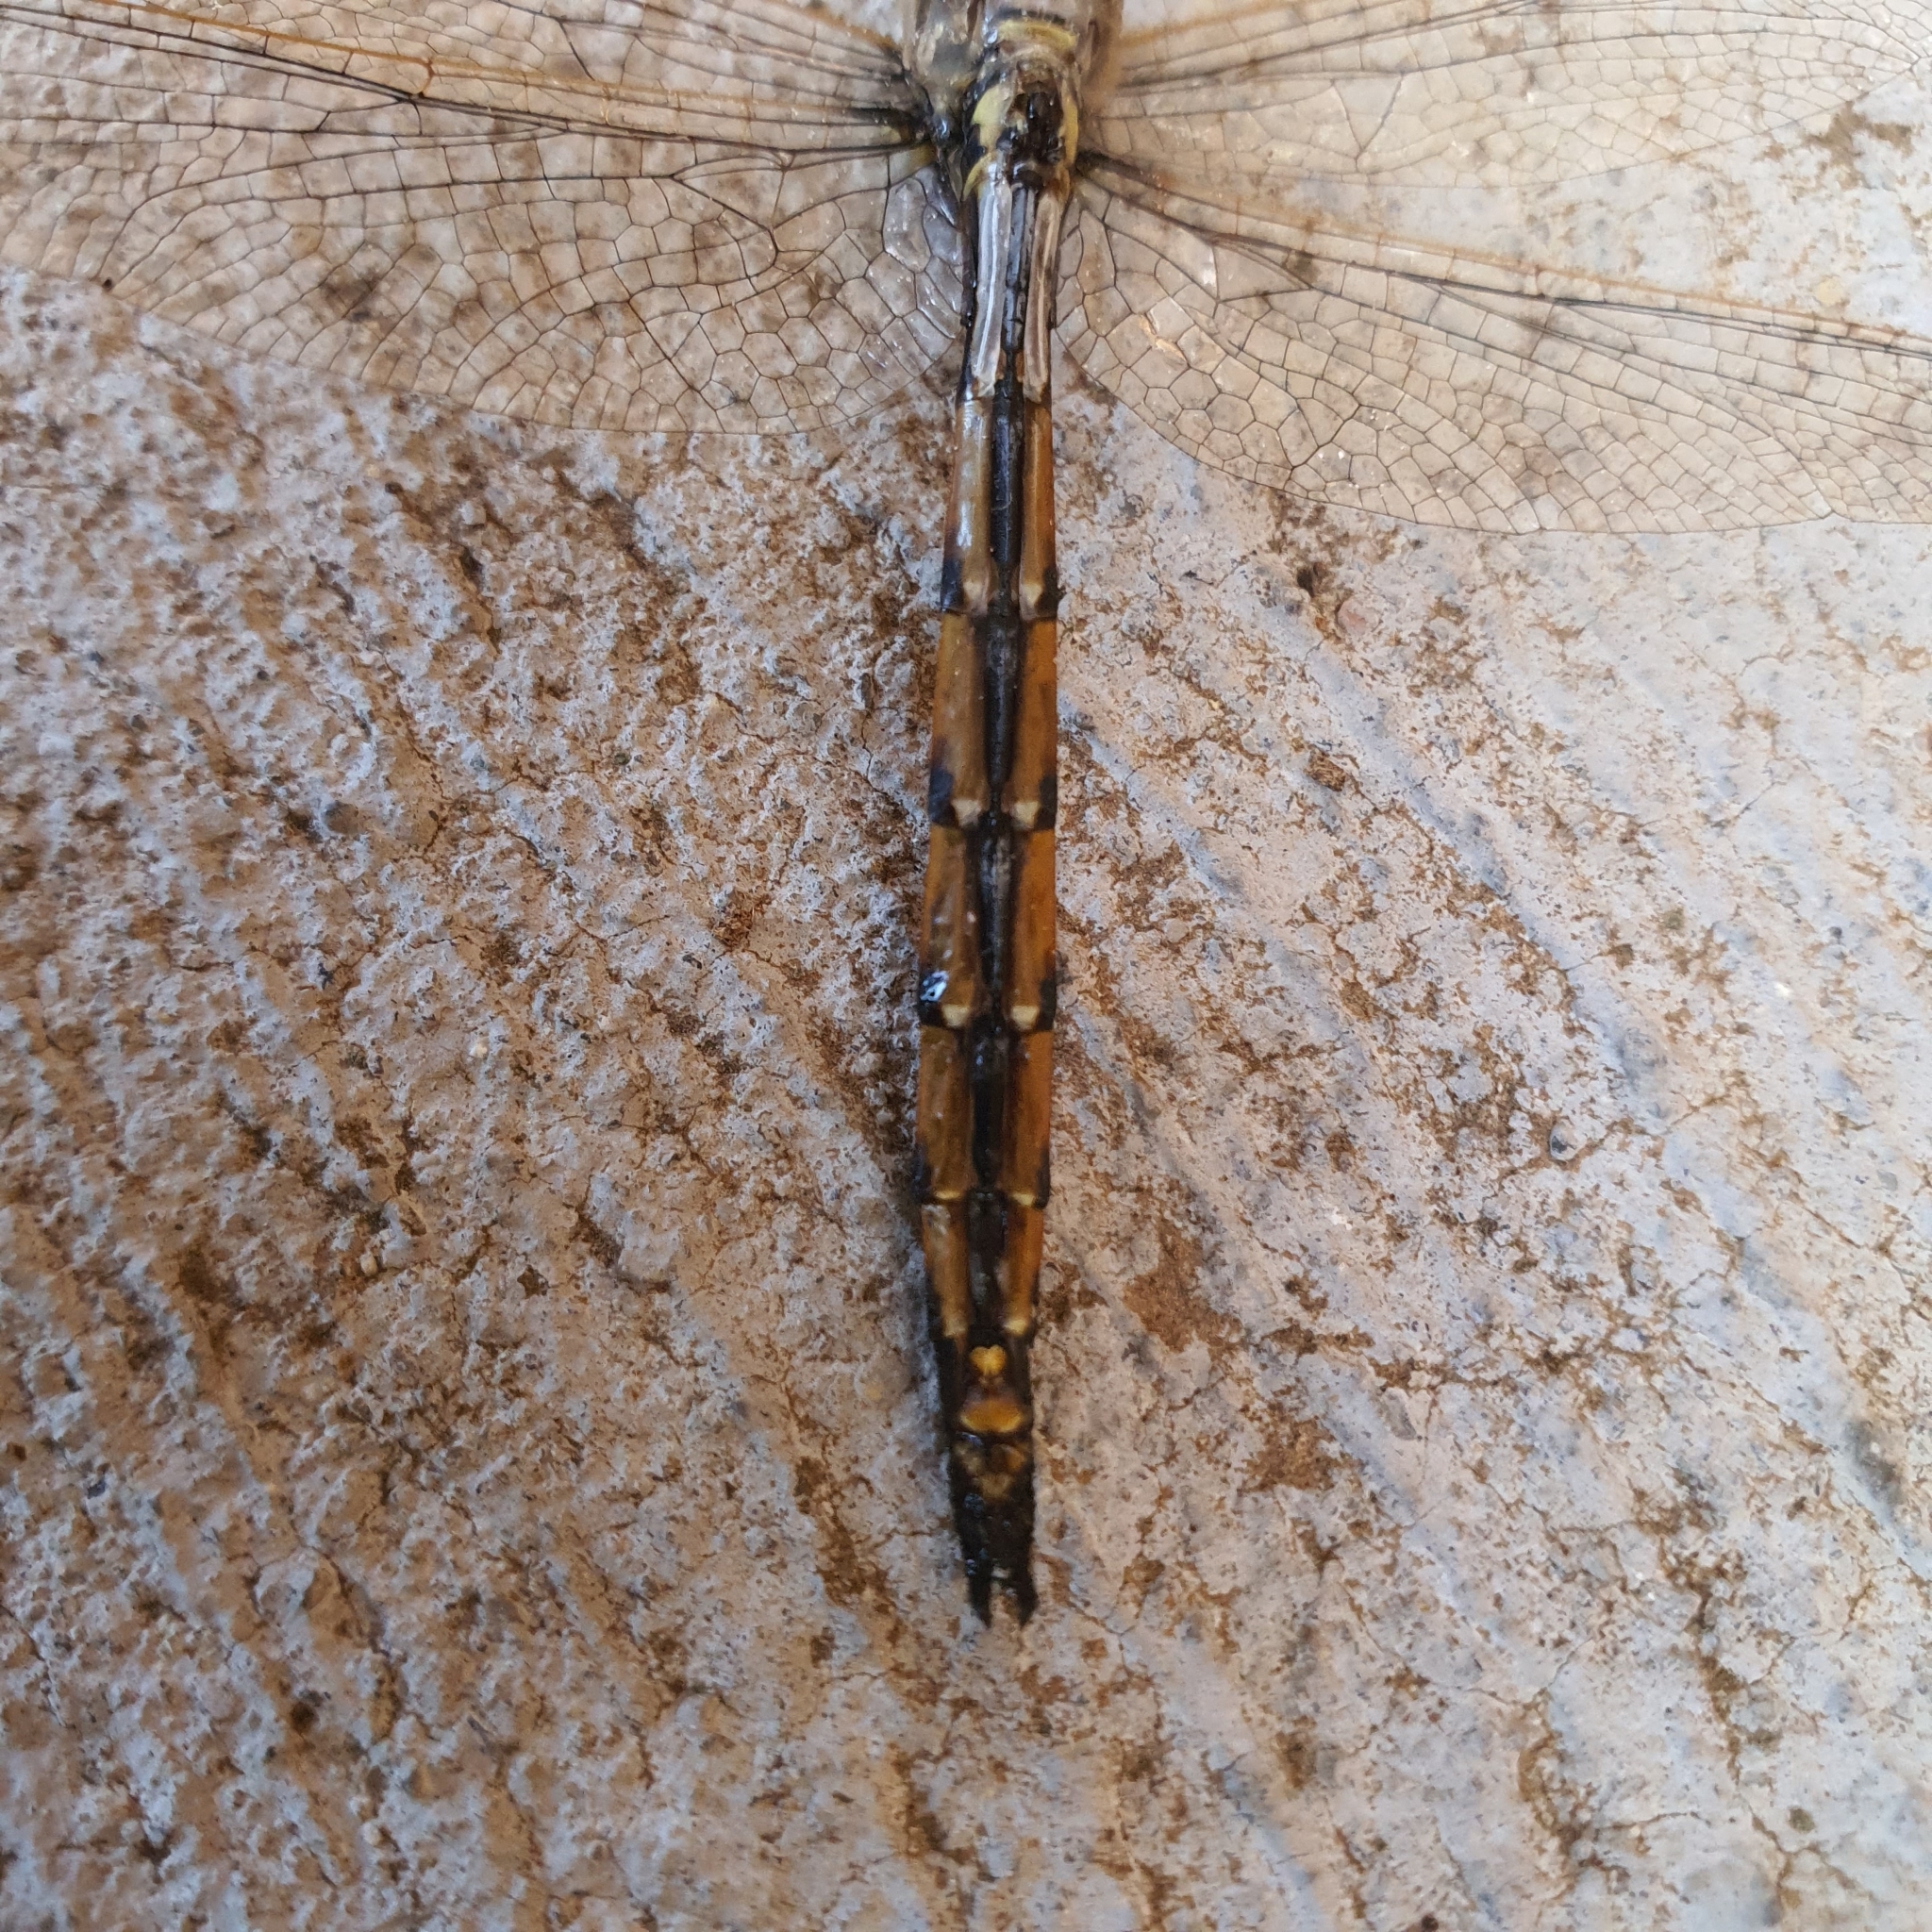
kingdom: Animalia
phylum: Arthropoda
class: Insecta
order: Odonata
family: Corduliidae
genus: Hemicordulia
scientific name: Hemicordulia tau
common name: Tau emerald
